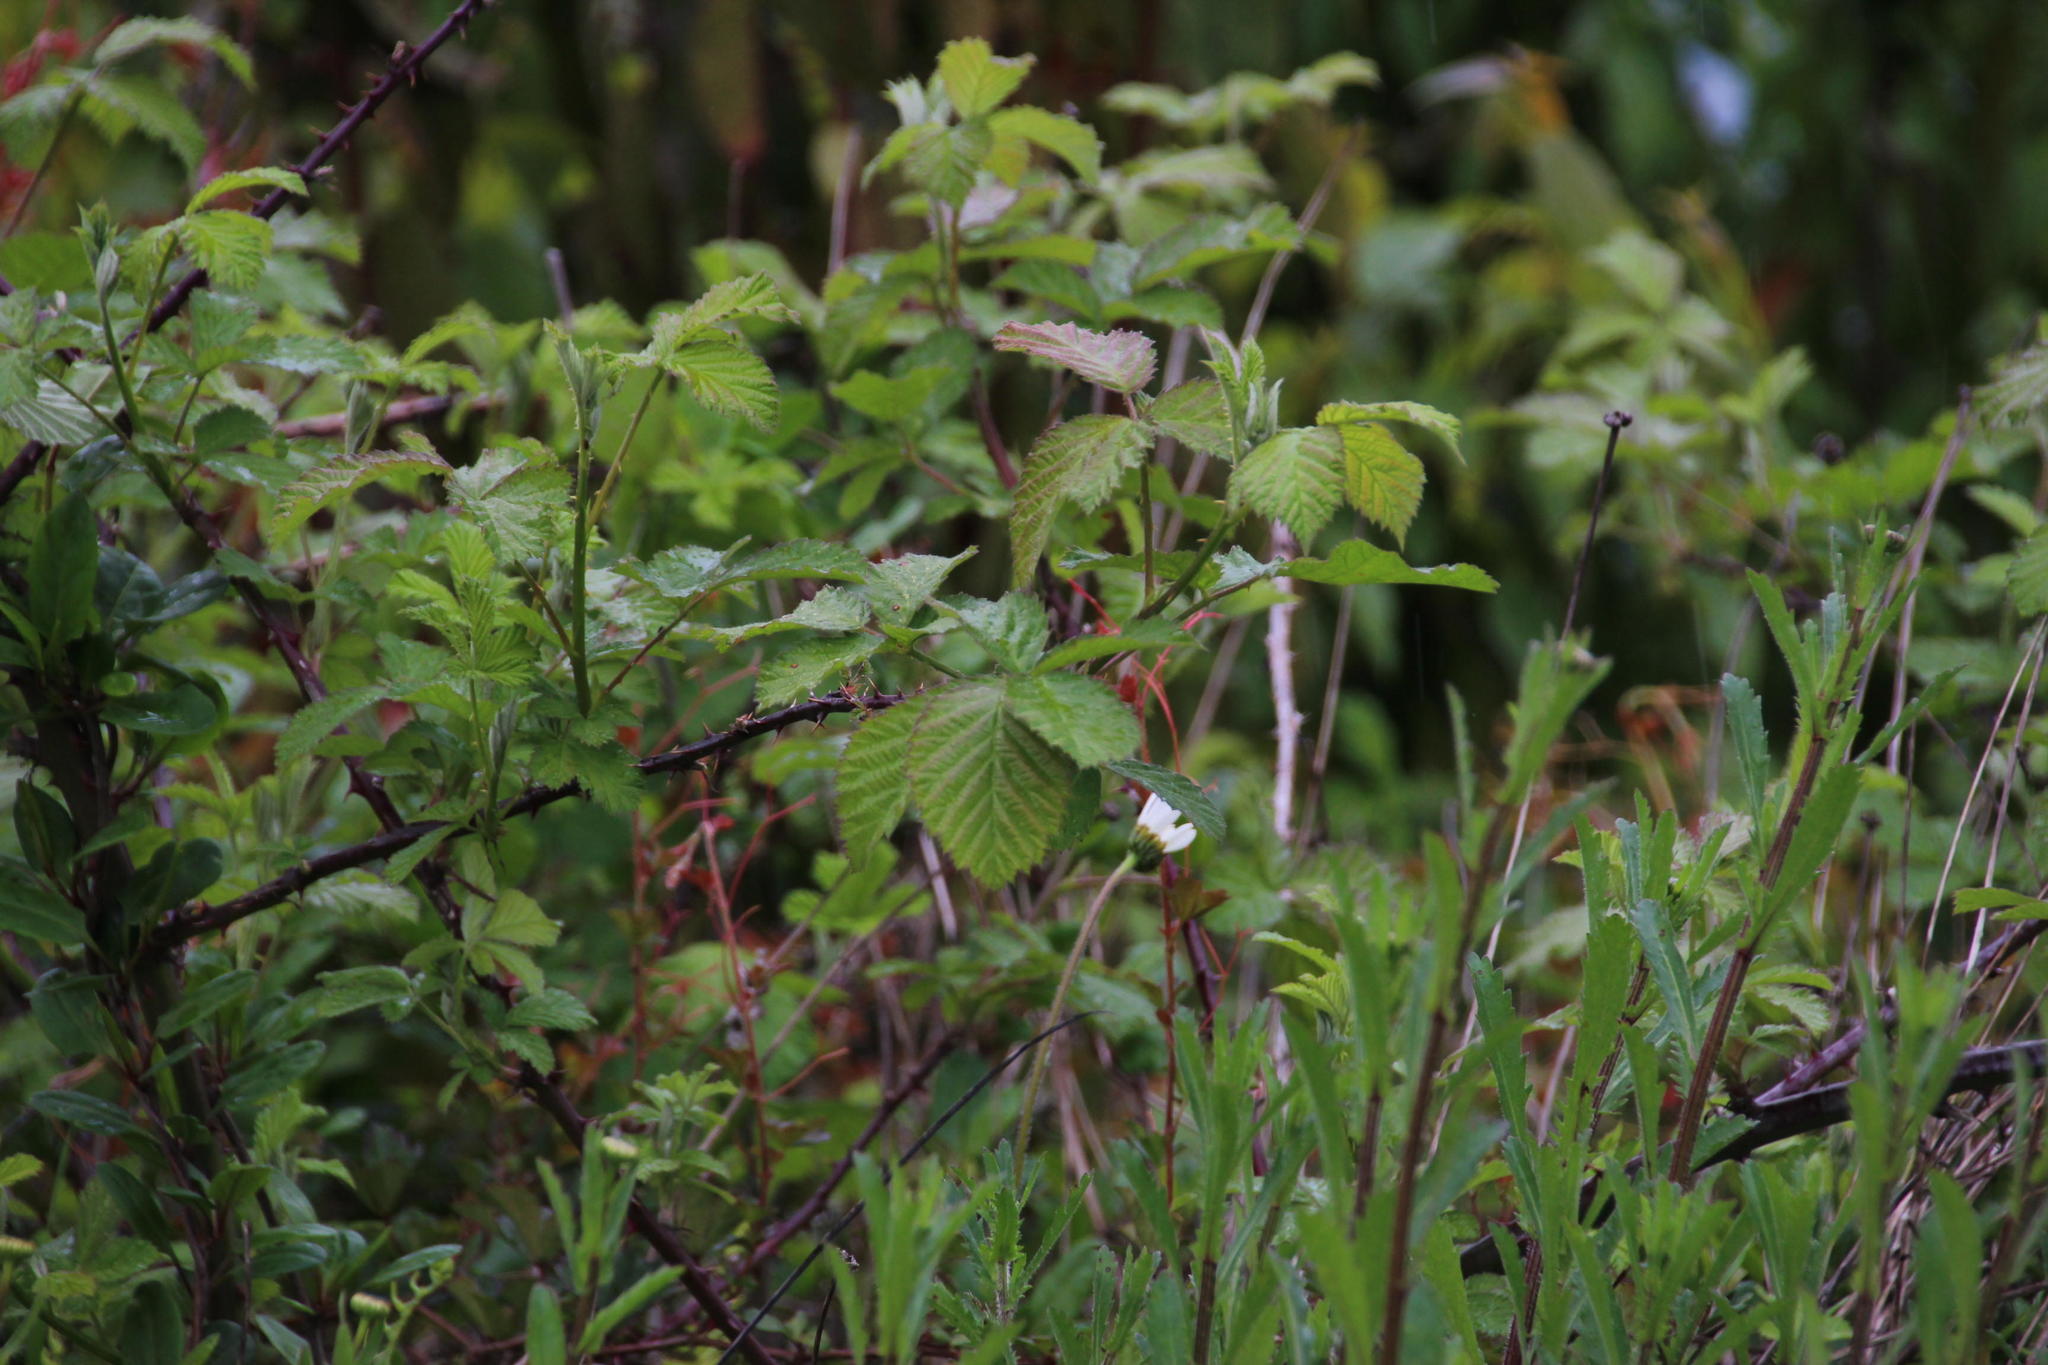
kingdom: Plantae
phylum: Tracheophyta
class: Magnoliopsida
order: Rosales
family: Rosaceae
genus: Rubus
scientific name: Rubus ulmifolius
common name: Elmleaf blackberry
